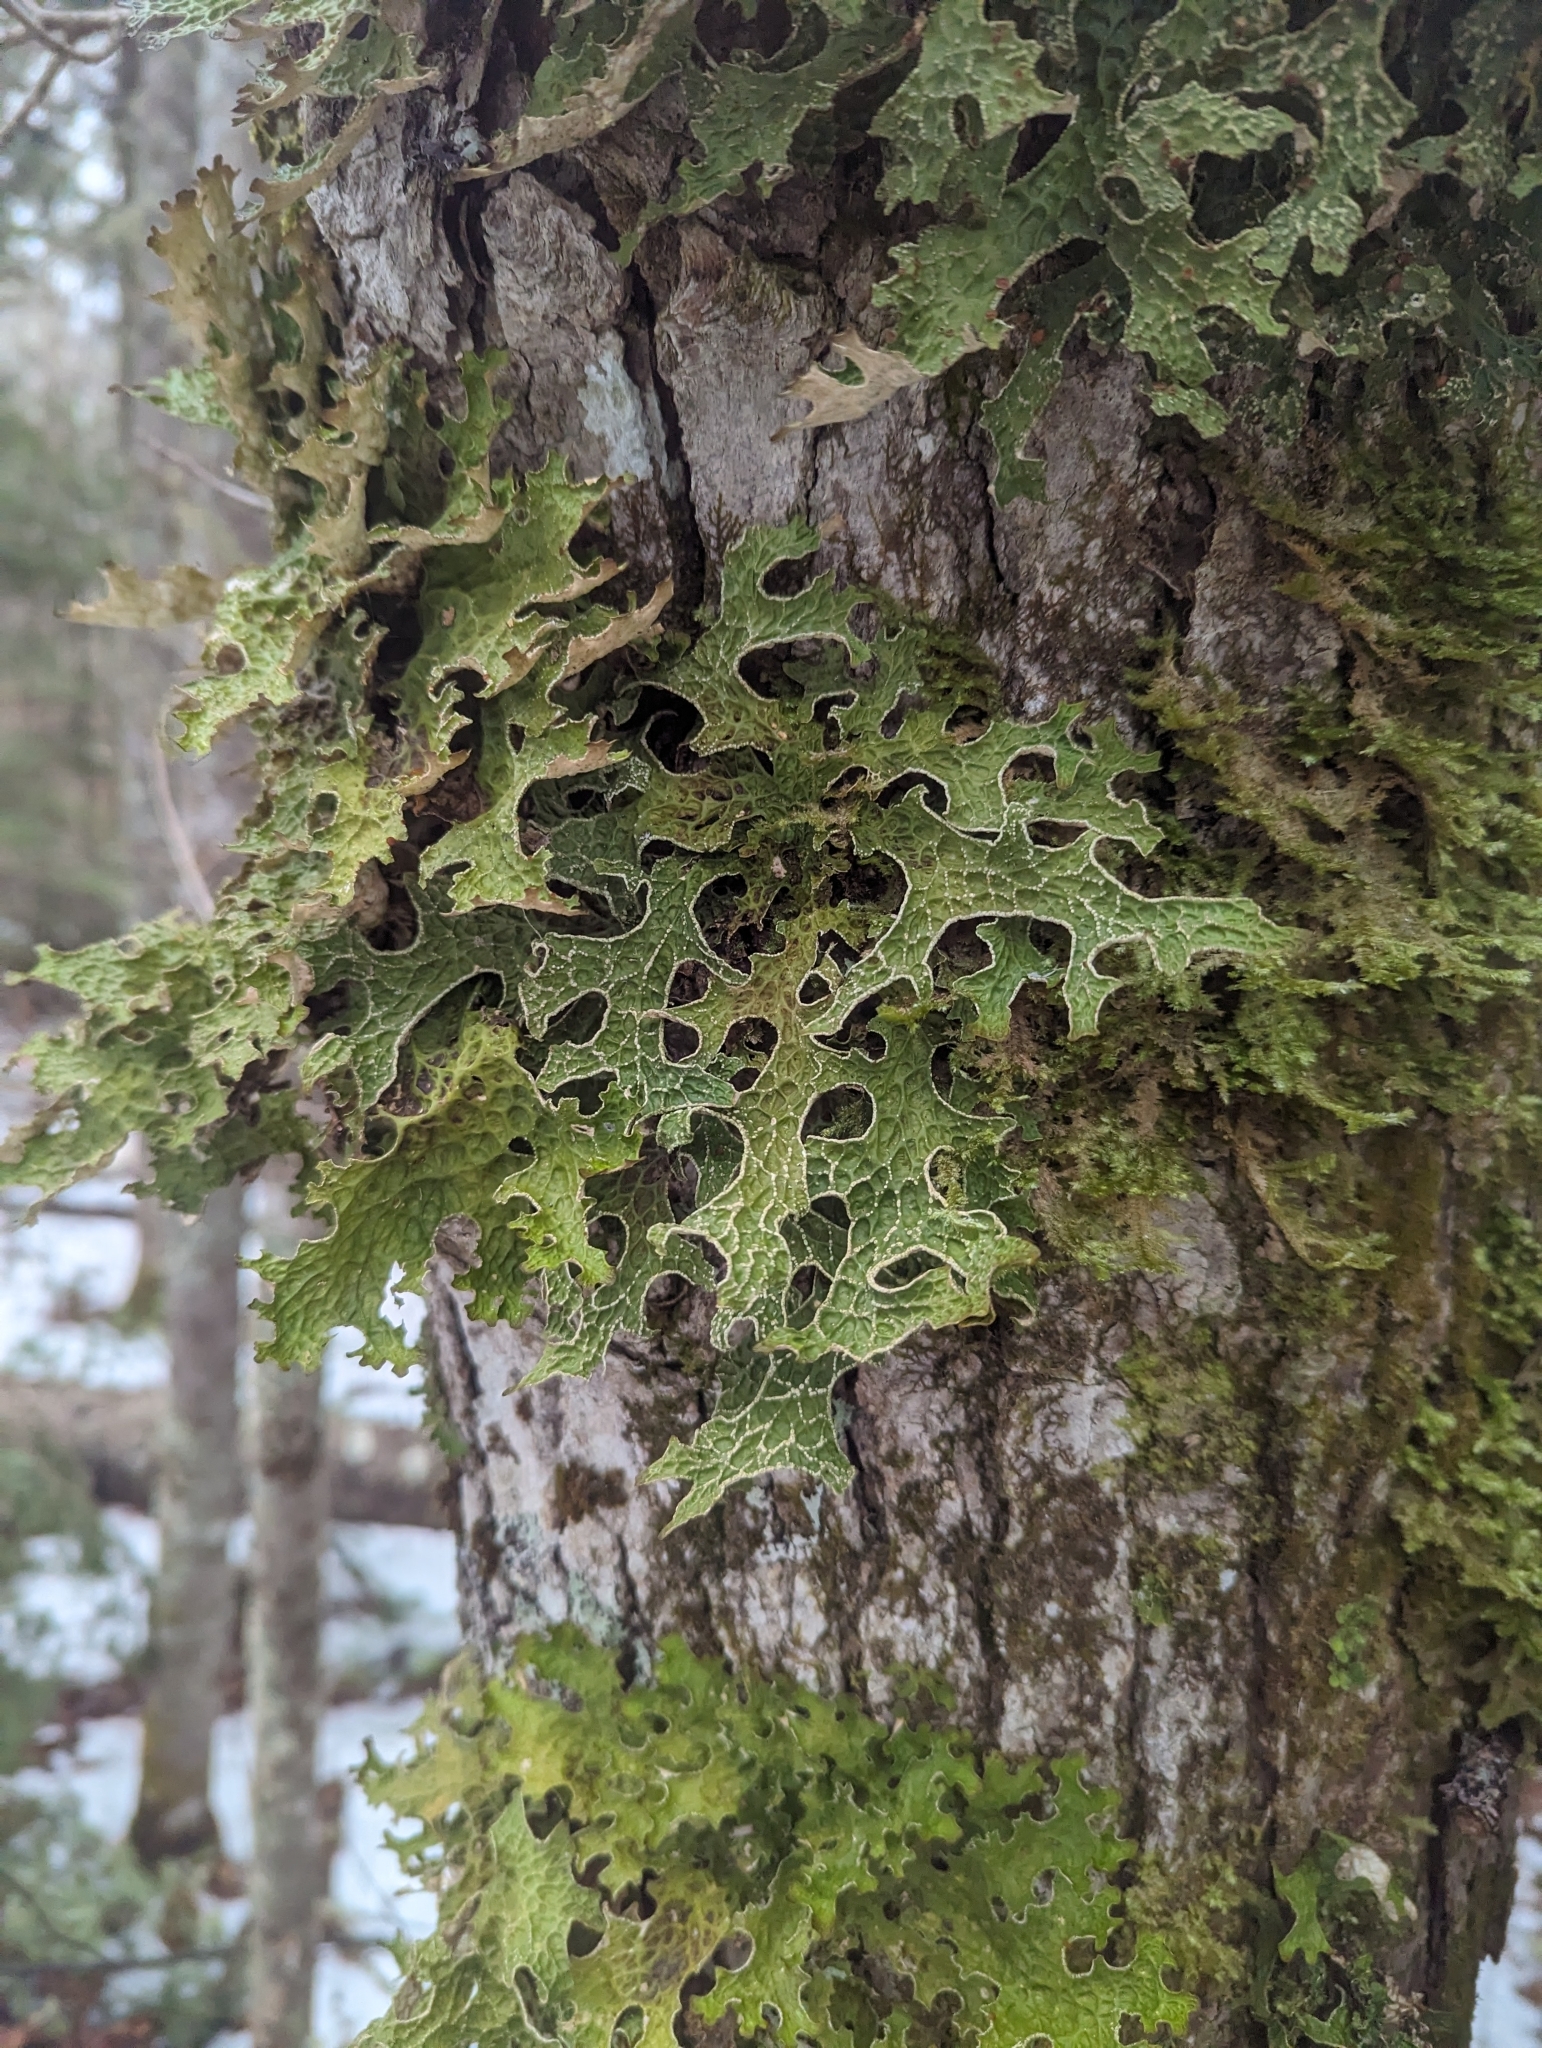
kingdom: Fungi
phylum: Ascomycota
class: Lecanoromycetes
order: Peltigerales
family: Lobariaceae
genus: Lobaria
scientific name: Lobaria pulmonaria
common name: Lungwort
